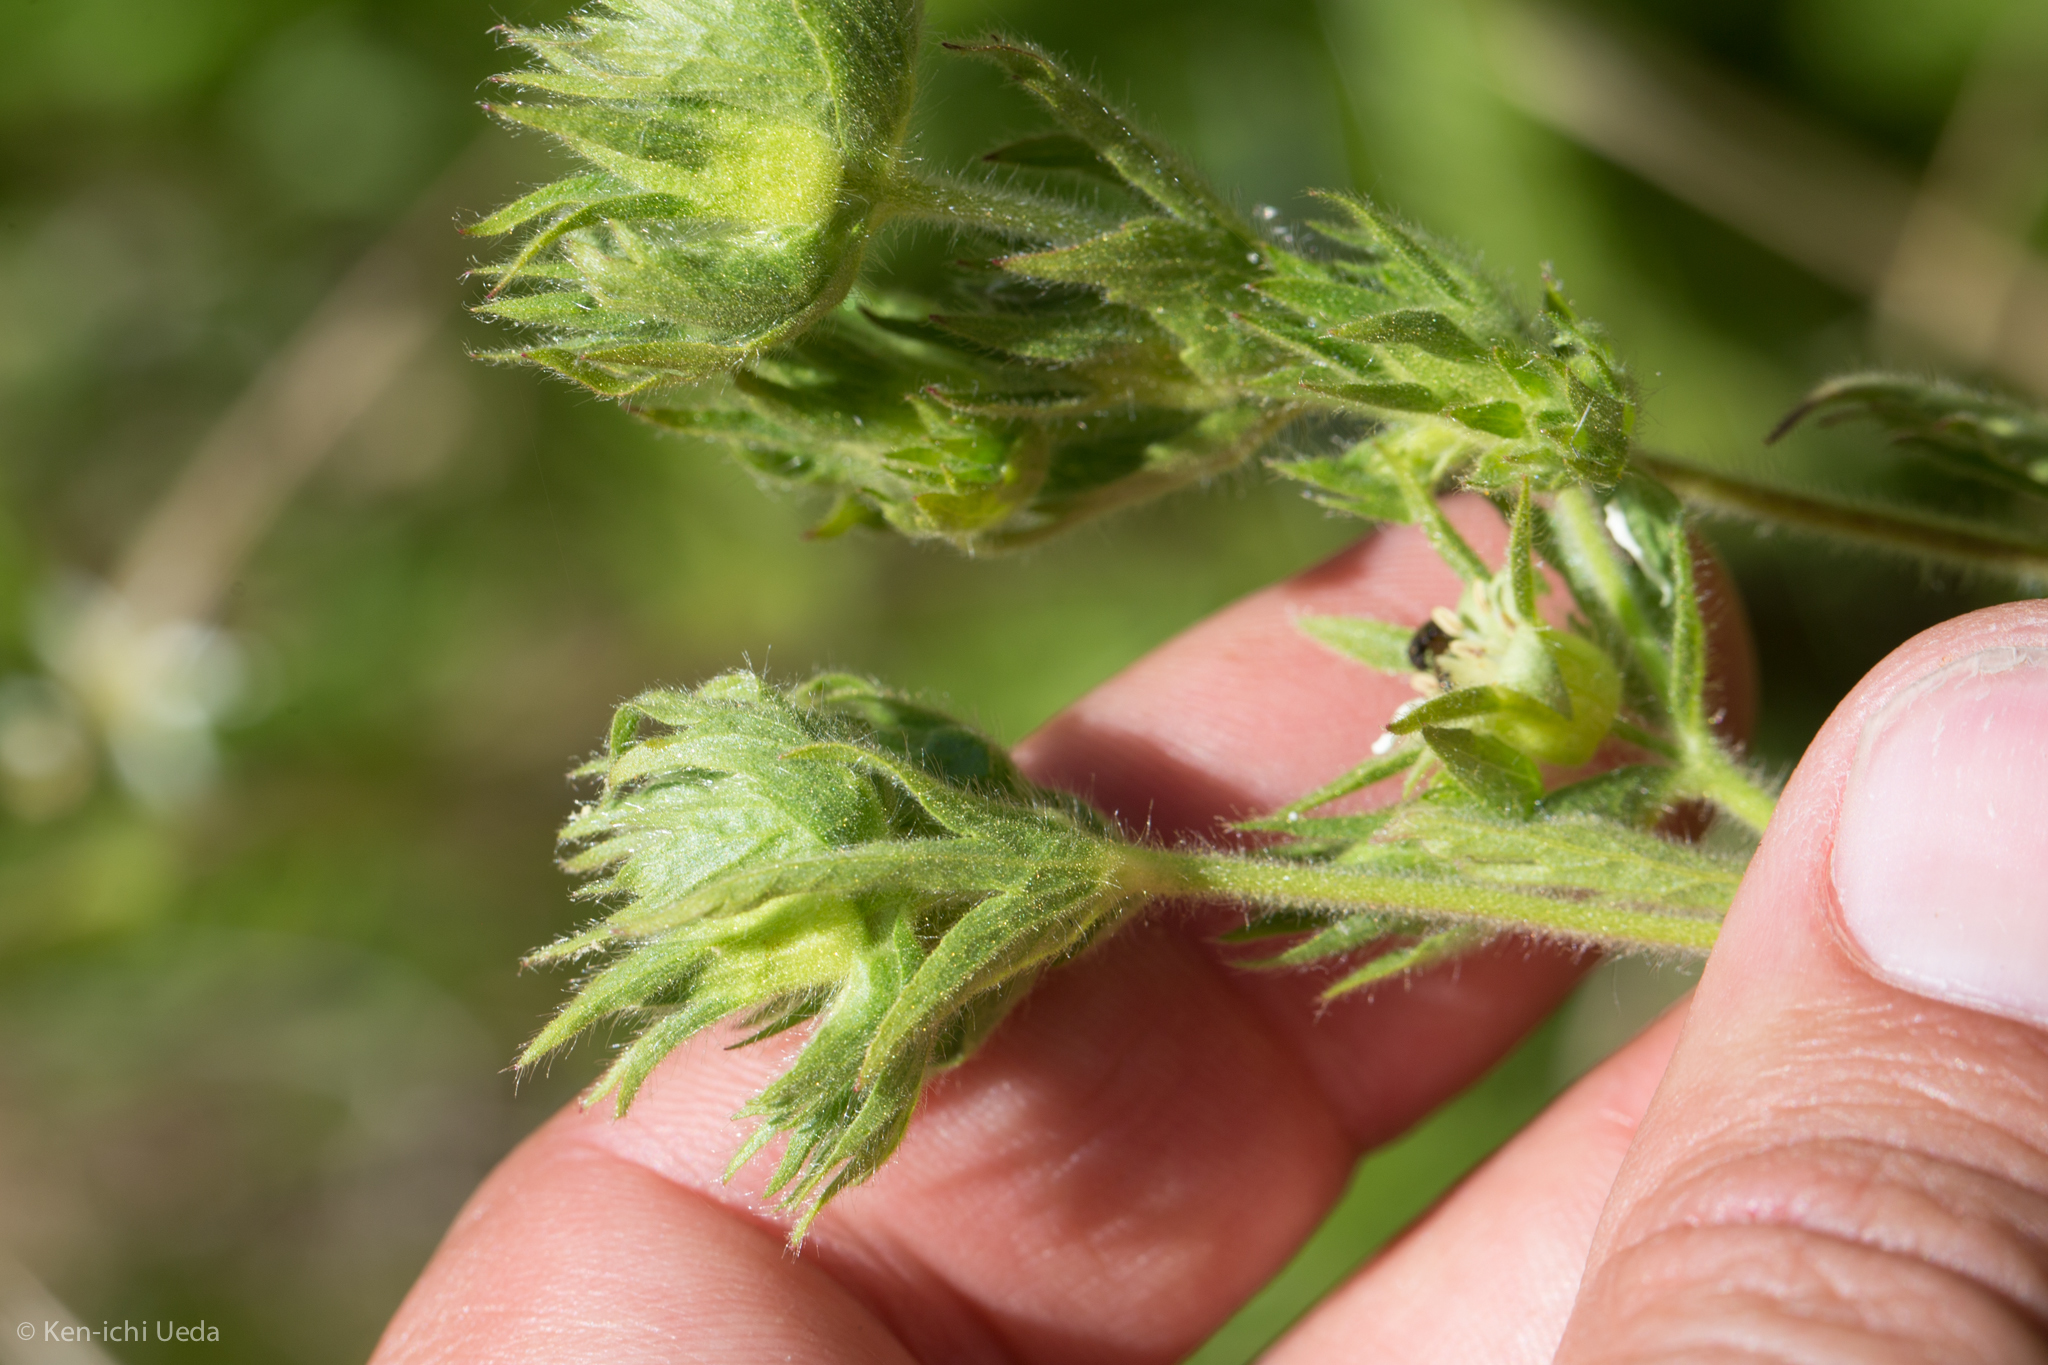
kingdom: Plantae
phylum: Tracheophyta
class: Magnoliopsida
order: Rosales
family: Rosaceae
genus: Potentilla
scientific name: Potentilla californica
